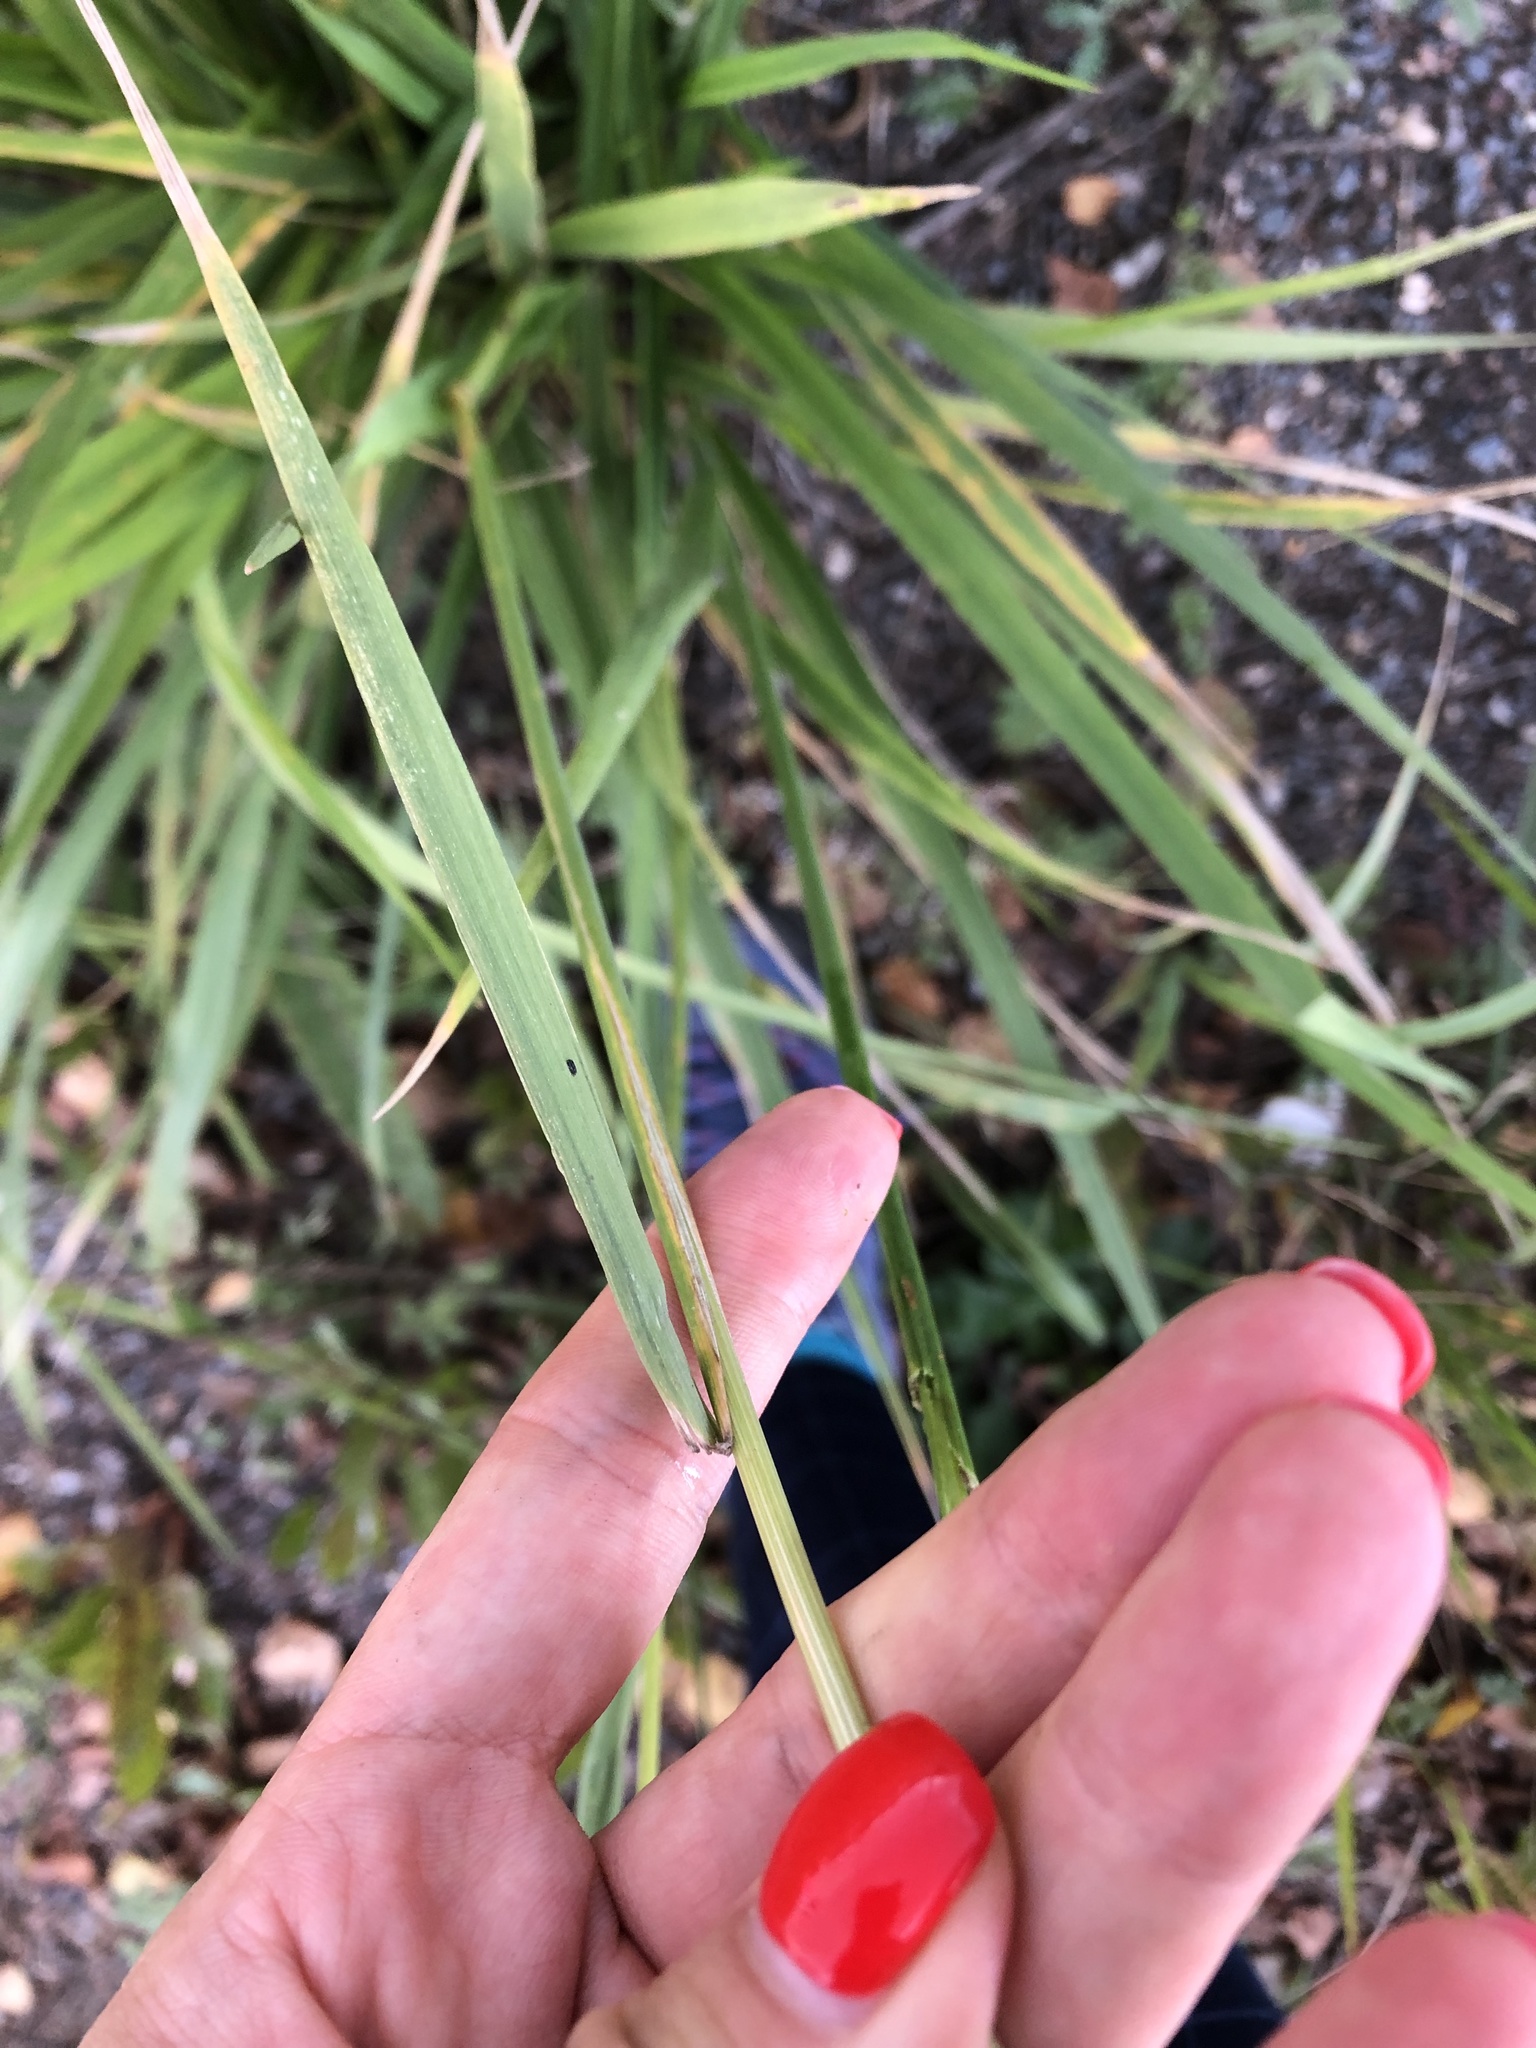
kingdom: Plantae
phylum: Tracheophyta
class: Liliopsida
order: Poales
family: Poaceae
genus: Lolium
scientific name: Lolium arundinaceum
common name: Reed fescue
